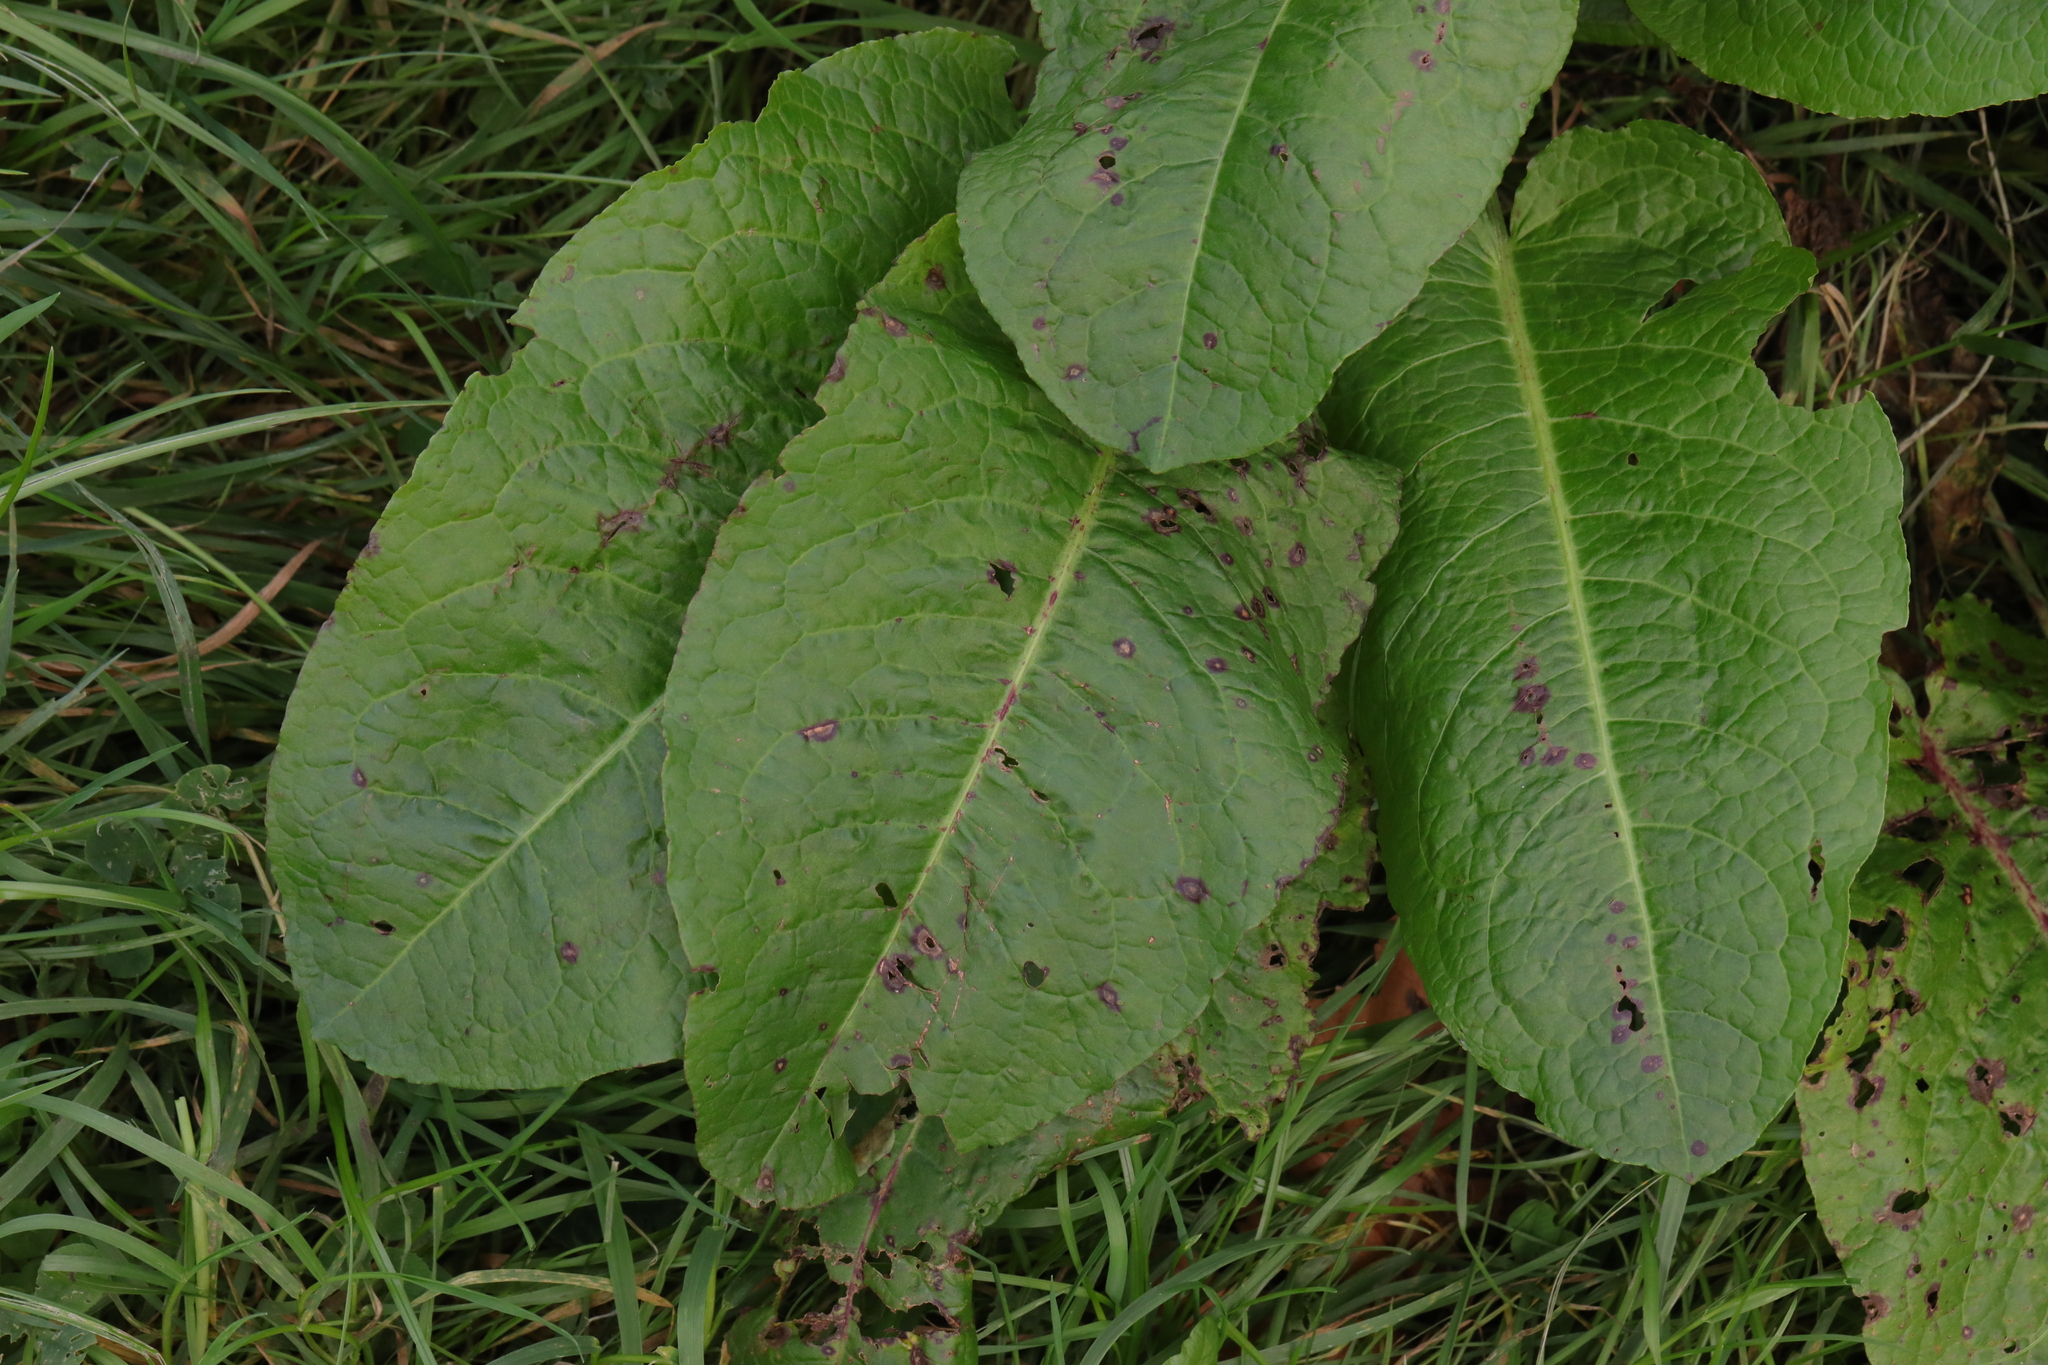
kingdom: Plantae
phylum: Tracheophyta
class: Magnoliopsida
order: Caryophyllales
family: Polygonaceae
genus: Rumex
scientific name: Rumex obtusifolius
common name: Bitter dock
